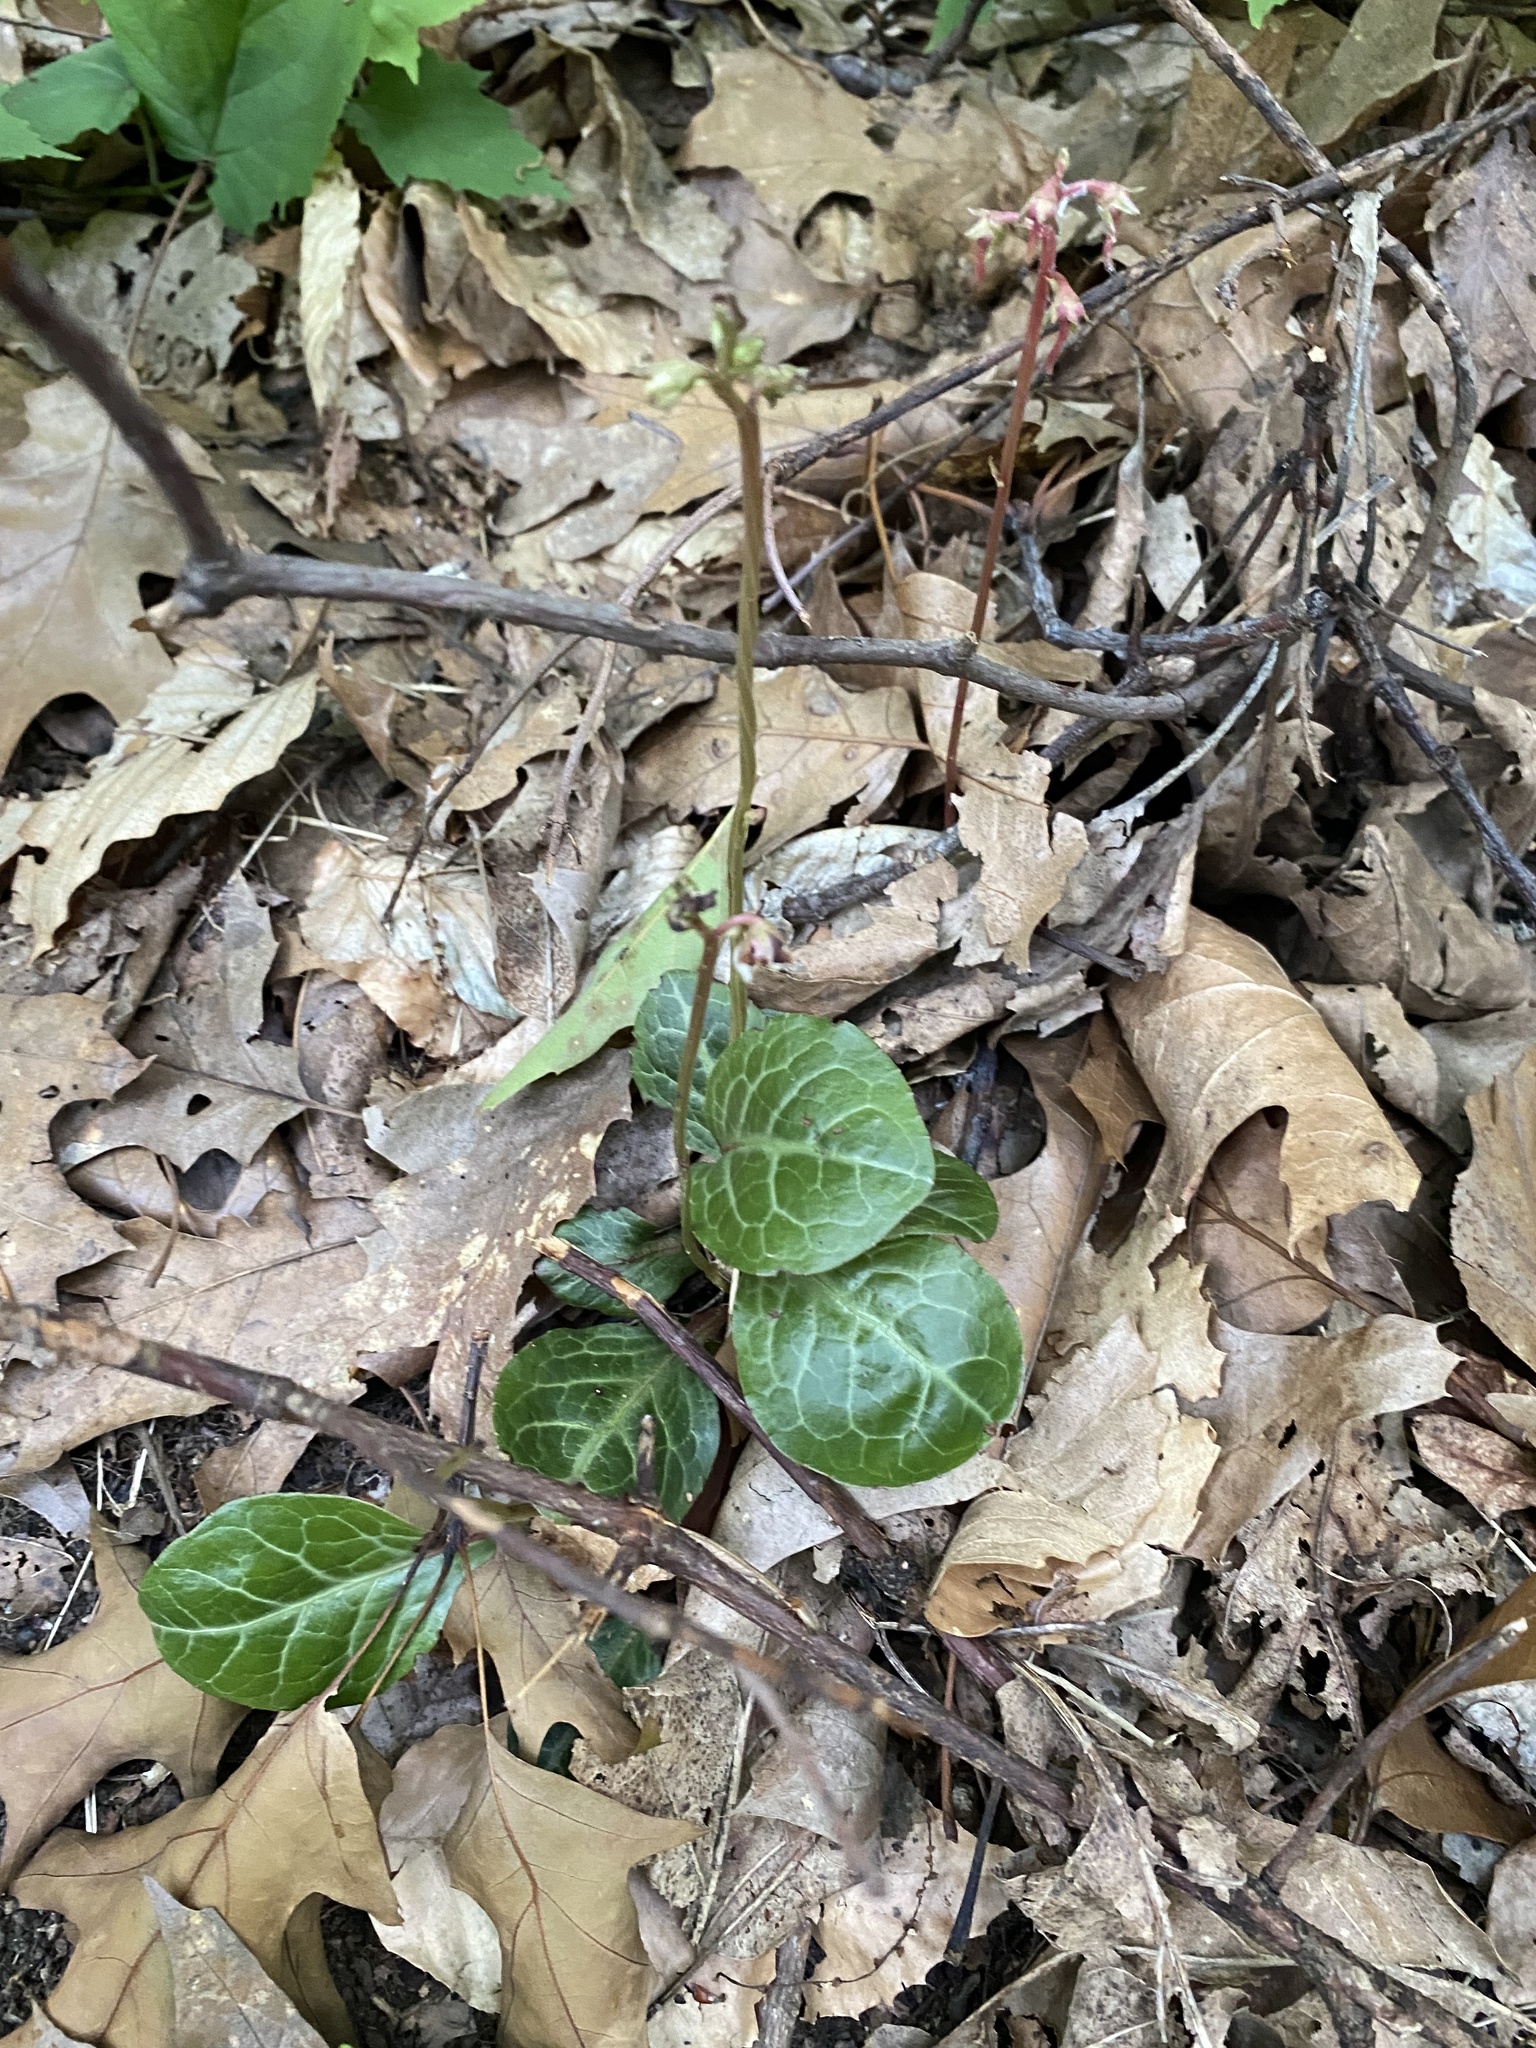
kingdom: Plantae
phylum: Tracheophyta
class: Magnoliopsida
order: Ericales
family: Ericaceae
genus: Pyrola
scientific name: Pyrola americana
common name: American wintergreen
